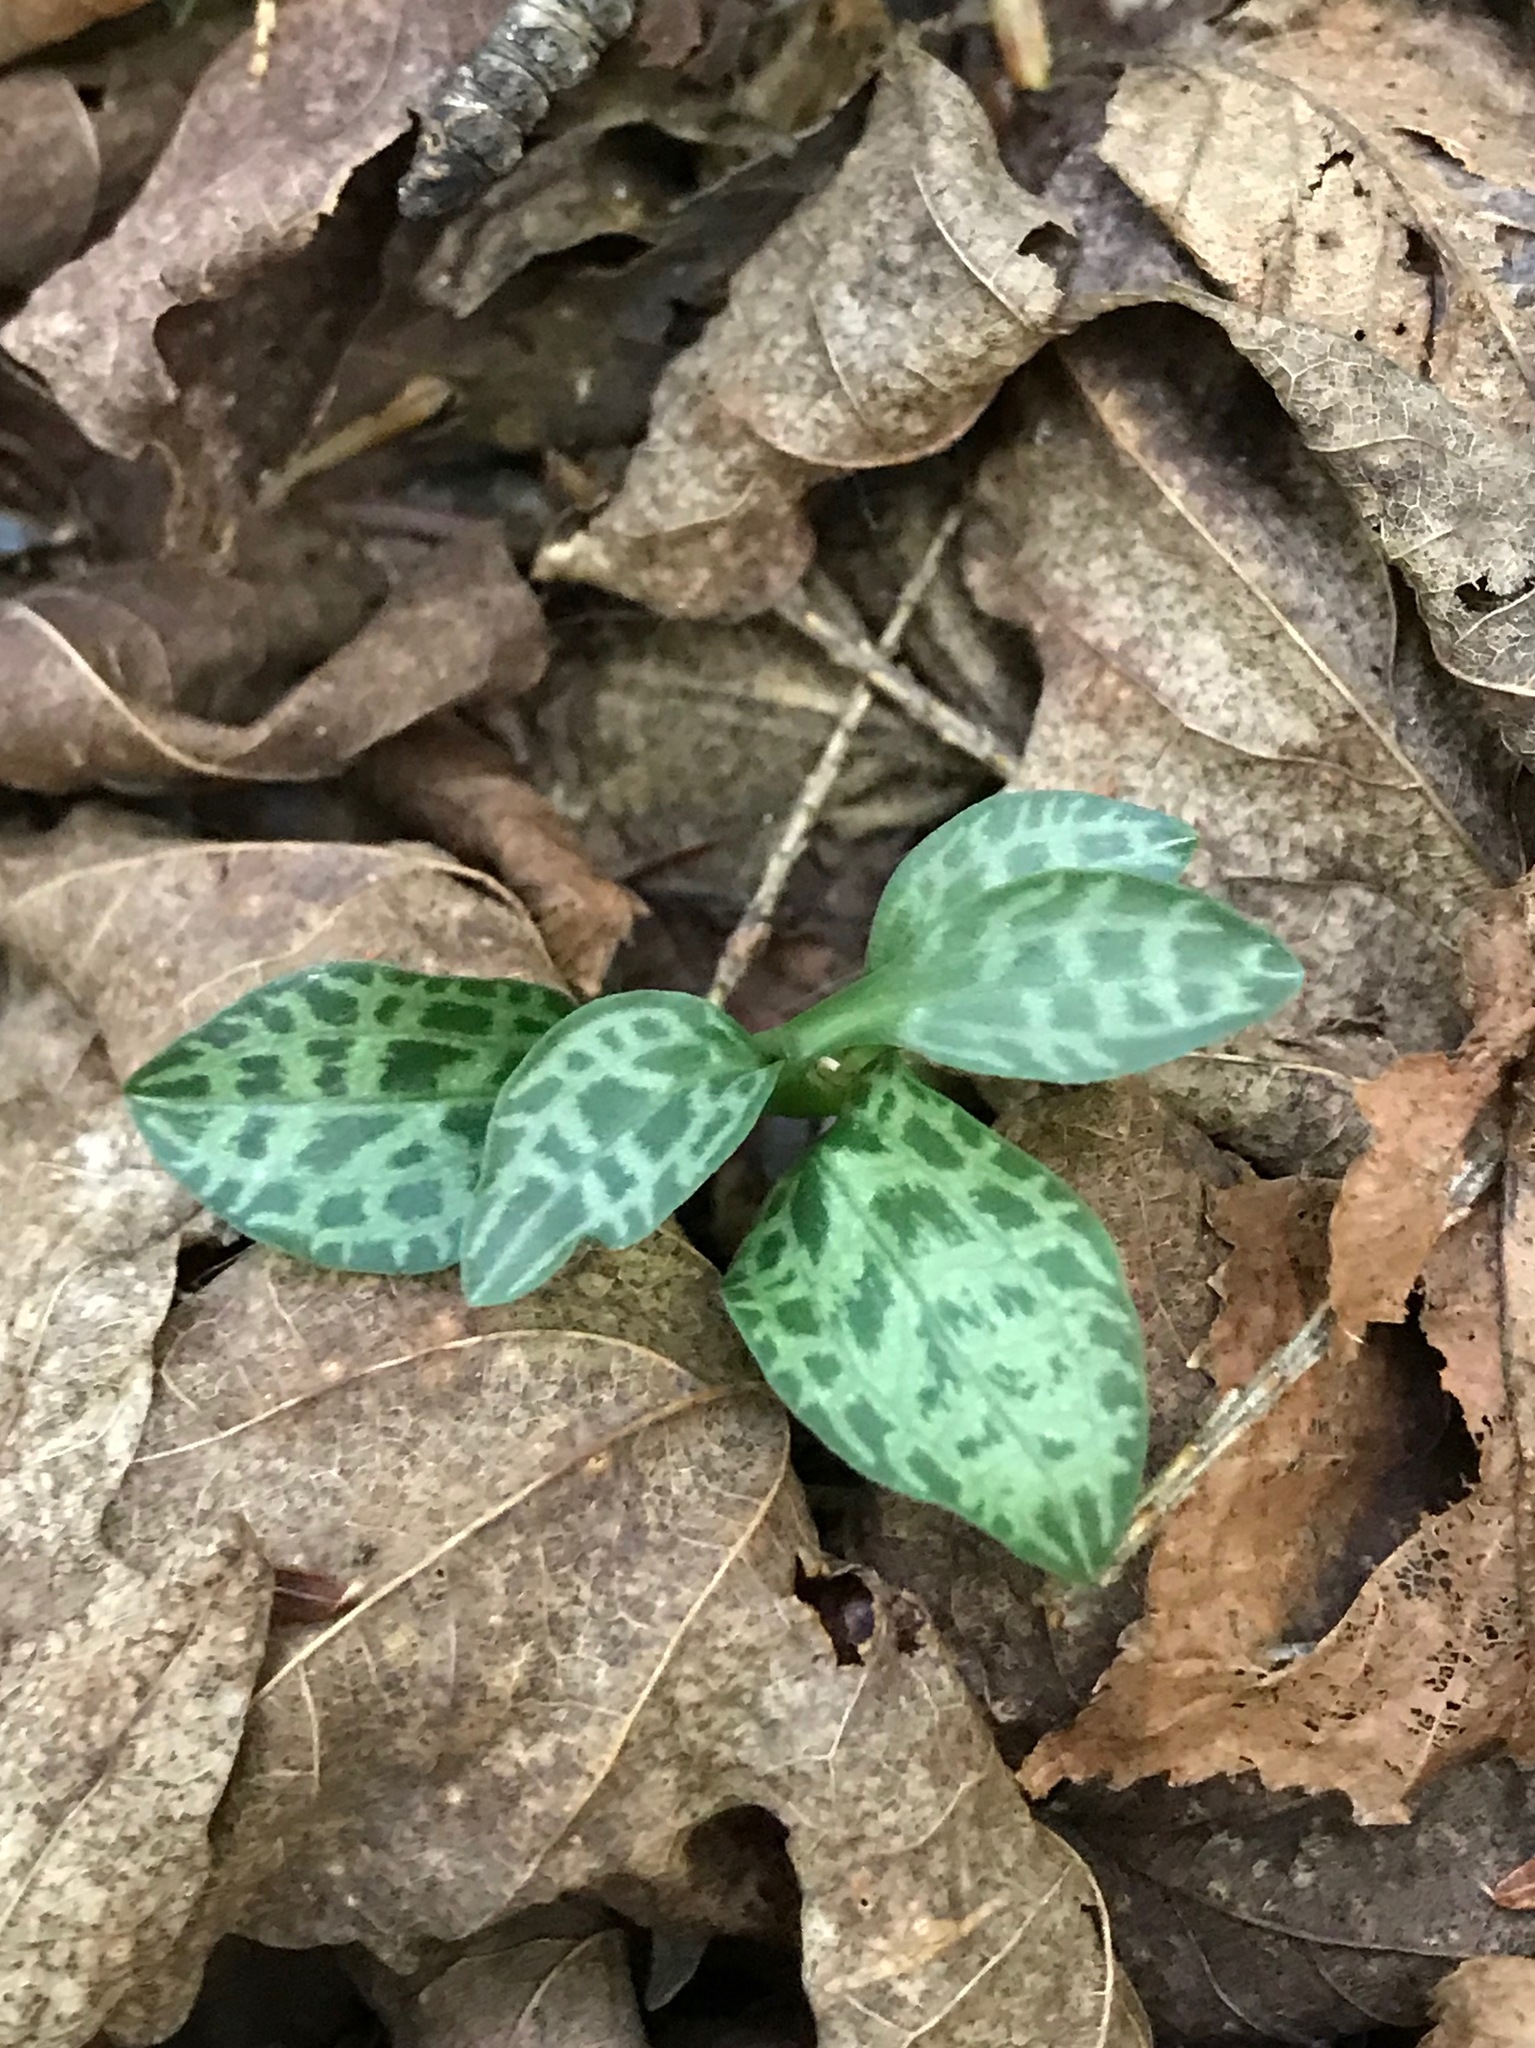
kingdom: Plantae
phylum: Tracheophyta
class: Liliopsida
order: Asparagales
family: Orchidaceae
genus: Goodyera
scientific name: Goodyera tesselata
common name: Checkered rattlesnake-plantain
